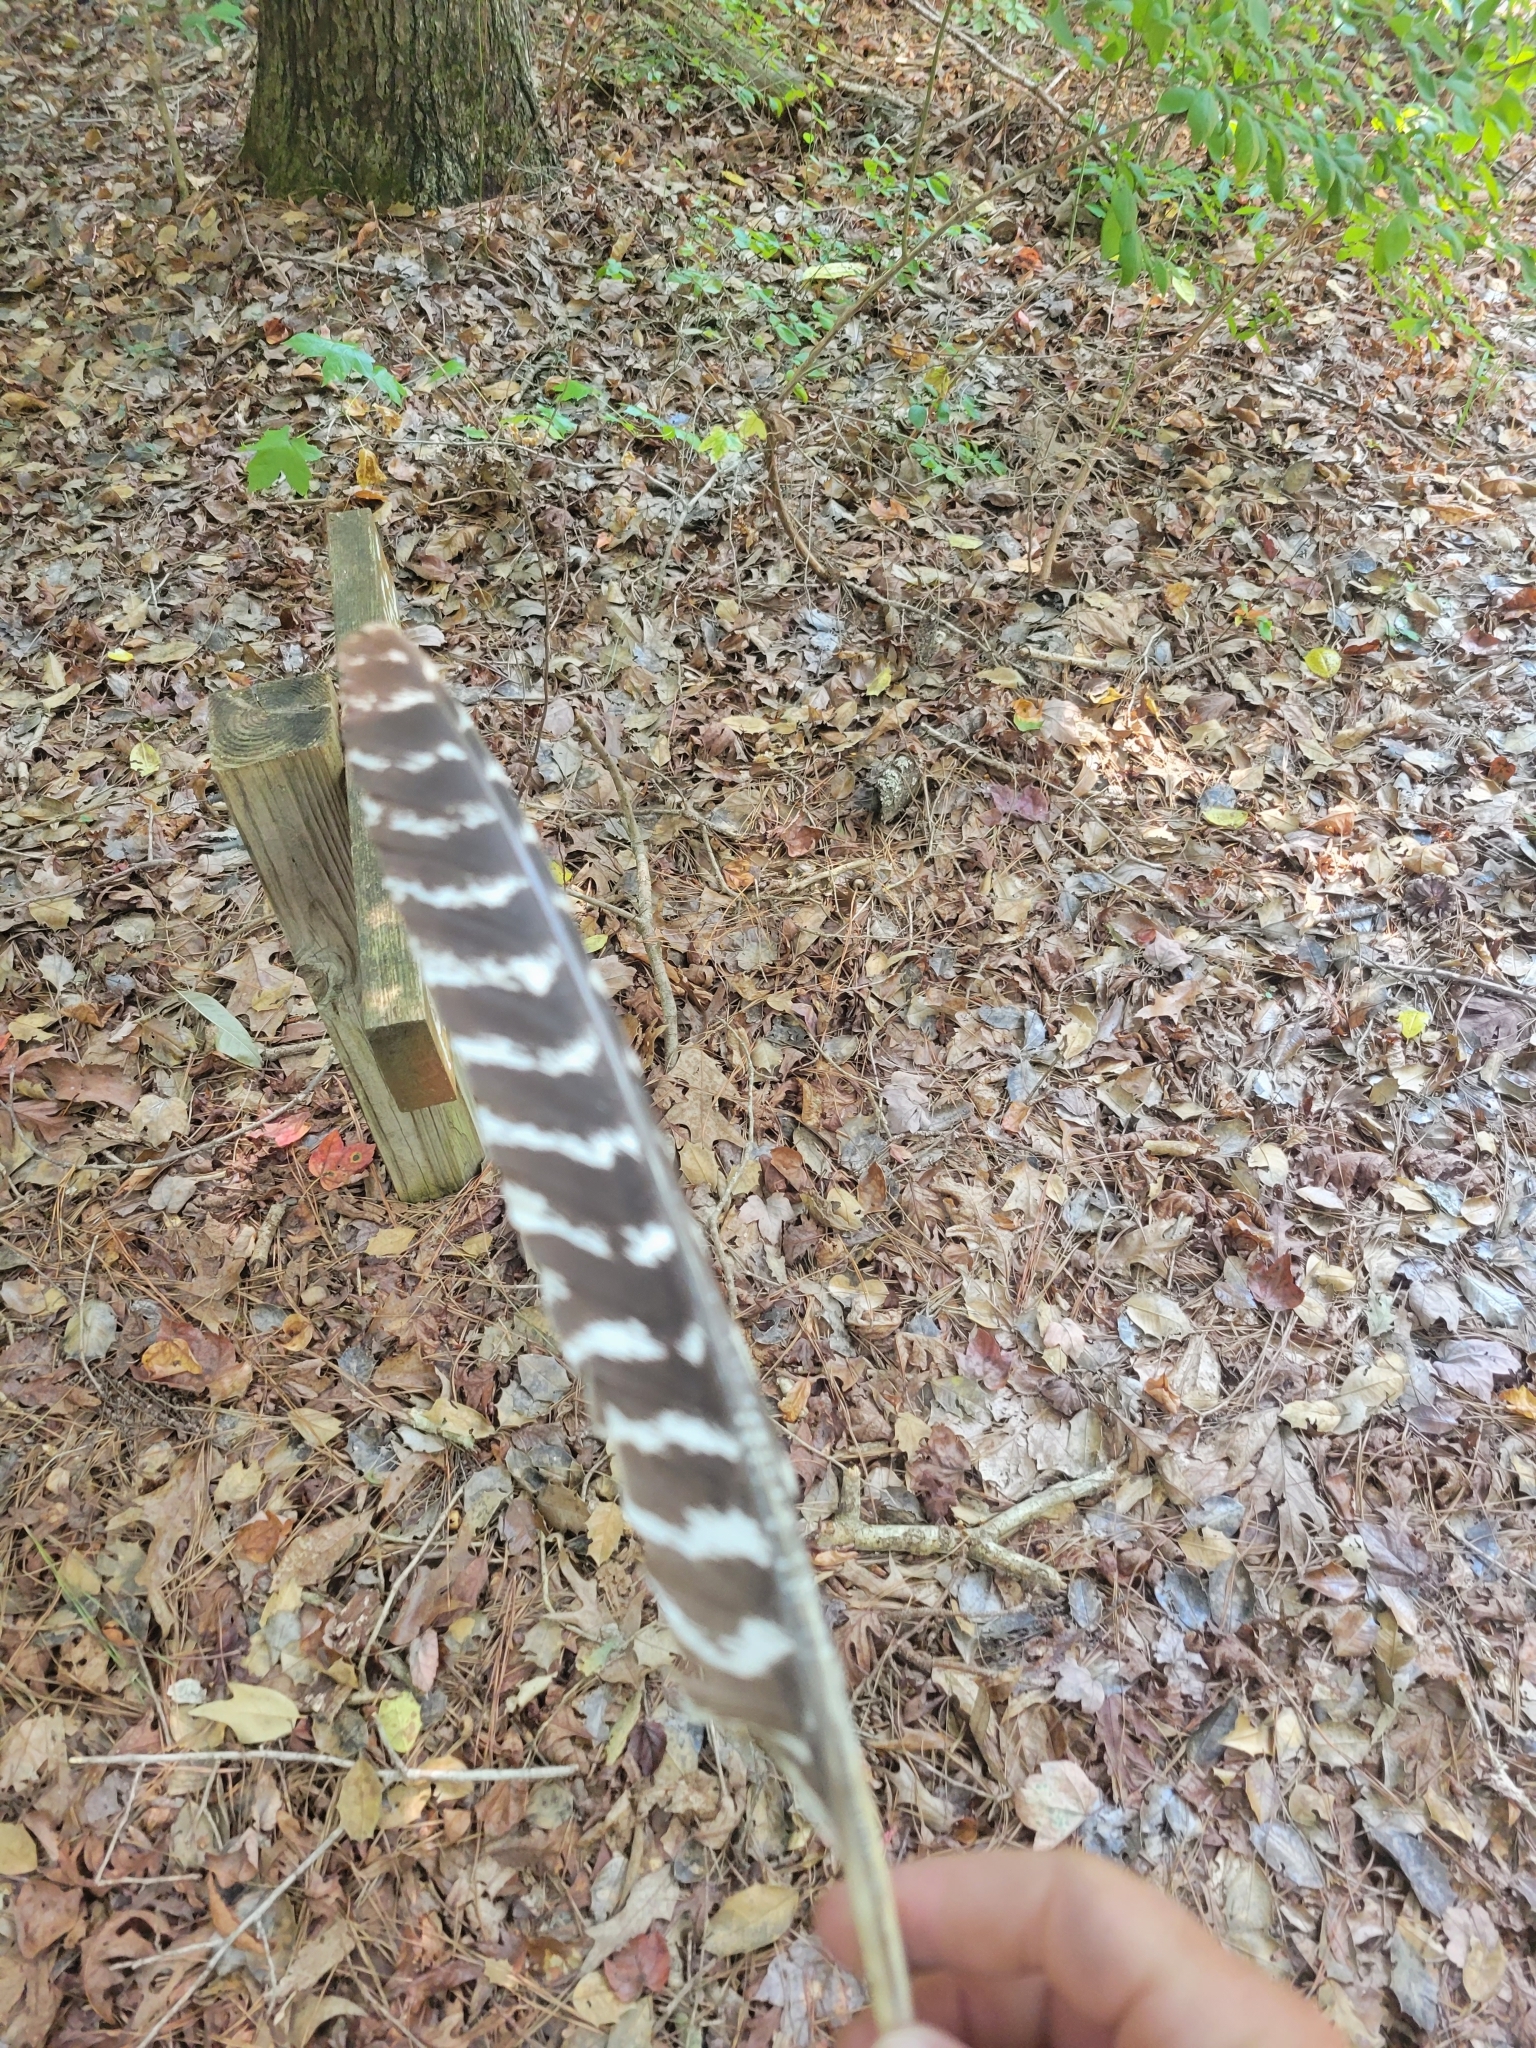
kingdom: Animalia
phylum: Chordata
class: Aves
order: Galliformes
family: Phasianidae
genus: Meleagris
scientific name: Meleagris gallopavo
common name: Wild turkey
